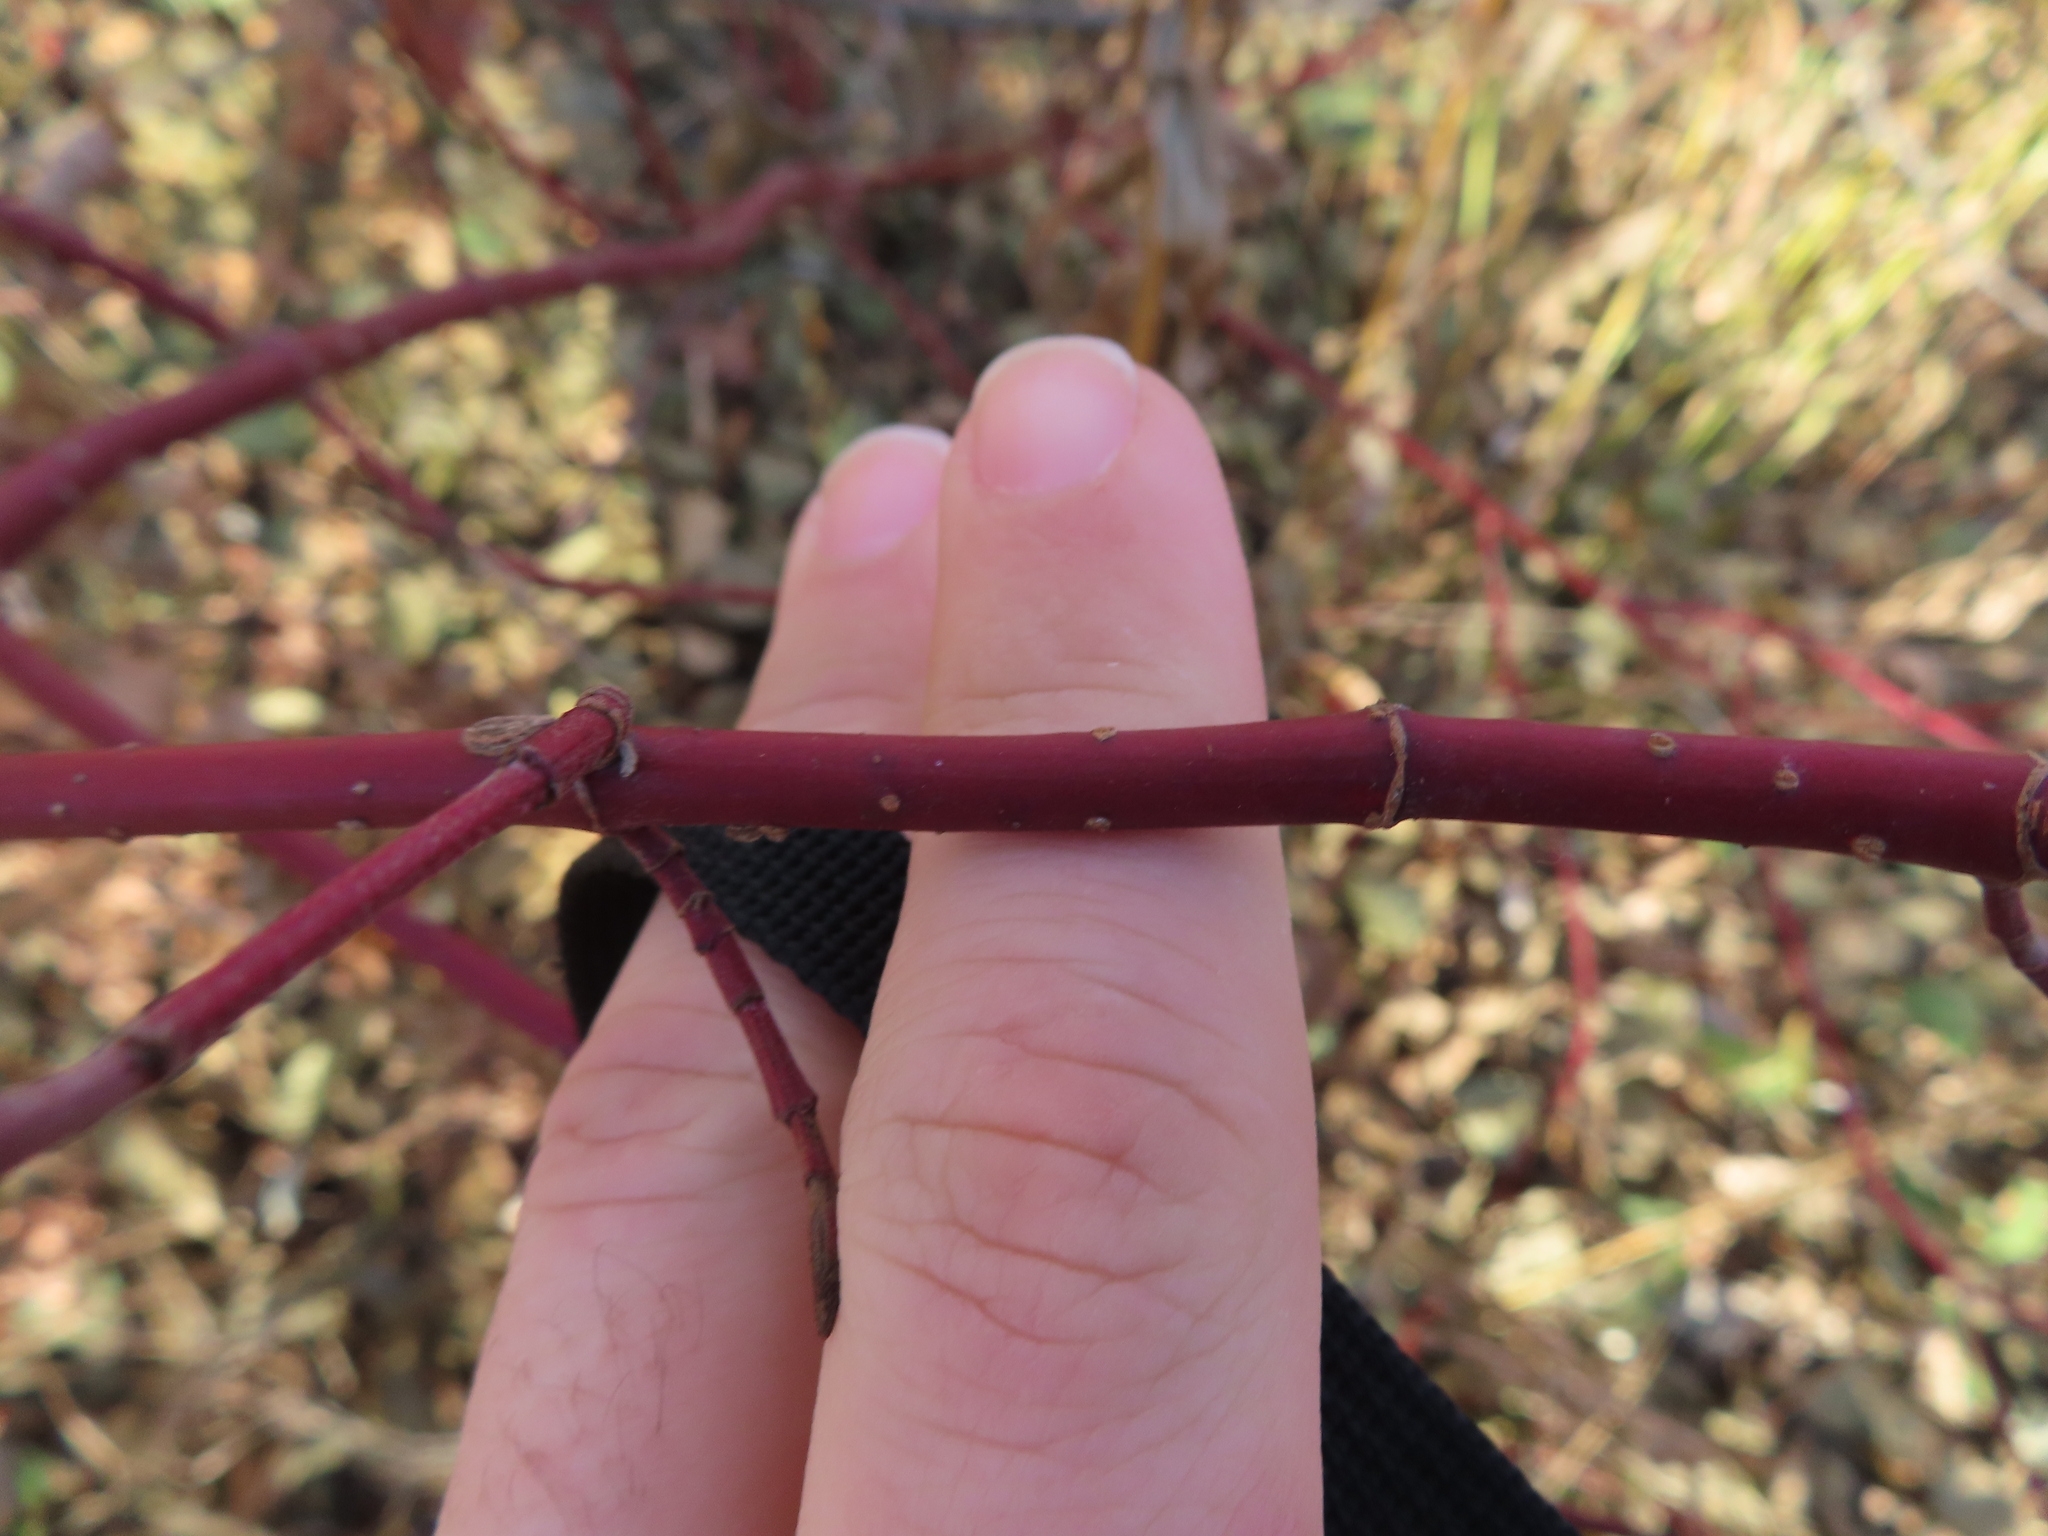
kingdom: Plantae
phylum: Tracheophyta
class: Magnoliopsida
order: Cornales
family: Cornaceae
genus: Cornus
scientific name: Cornus sericea
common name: Red-osier dogwood
